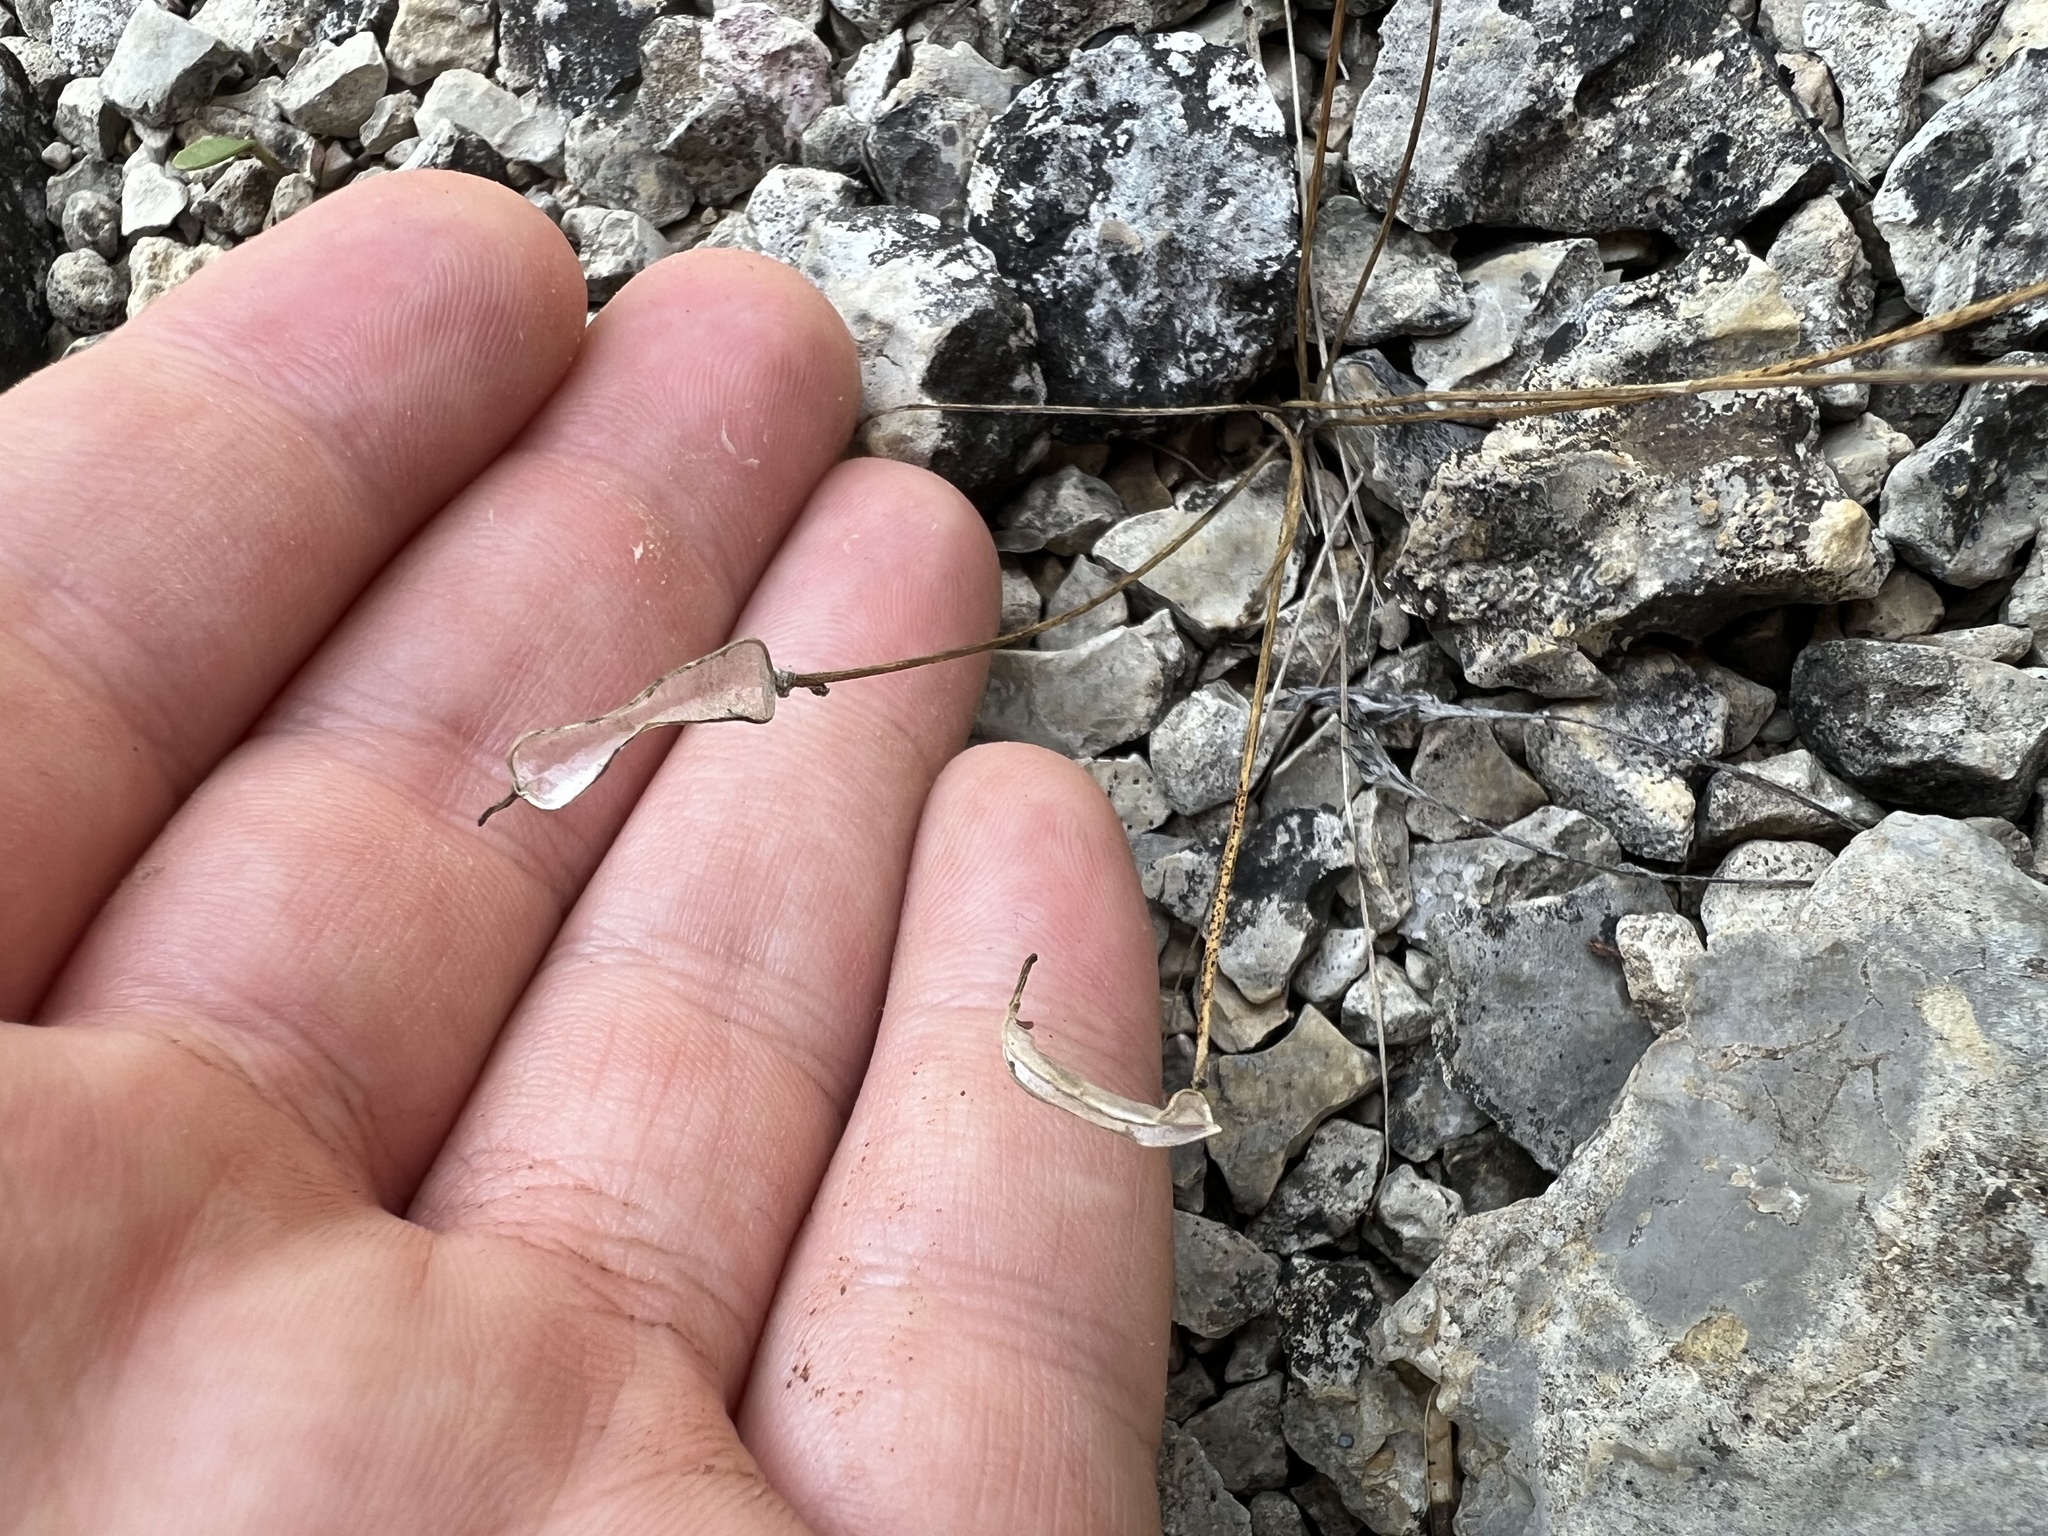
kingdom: Plantae
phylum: Tracheophyta
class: Magnoliopsida
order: Brassicales
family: Brassicaceae
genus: Leavenworthia
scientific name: Leavenworthia stylosa
